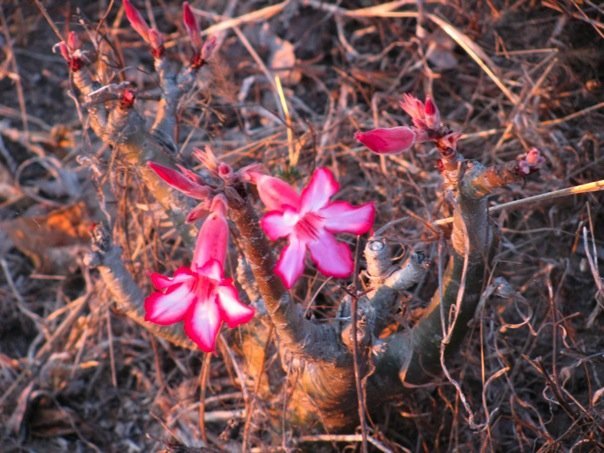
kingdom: Plantae
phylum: Tracheophyta
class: Magnoliopsida
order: Gentianales
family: Apocynaceae
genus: Adenium
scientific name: Adenium obesum
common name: Desert-rose
